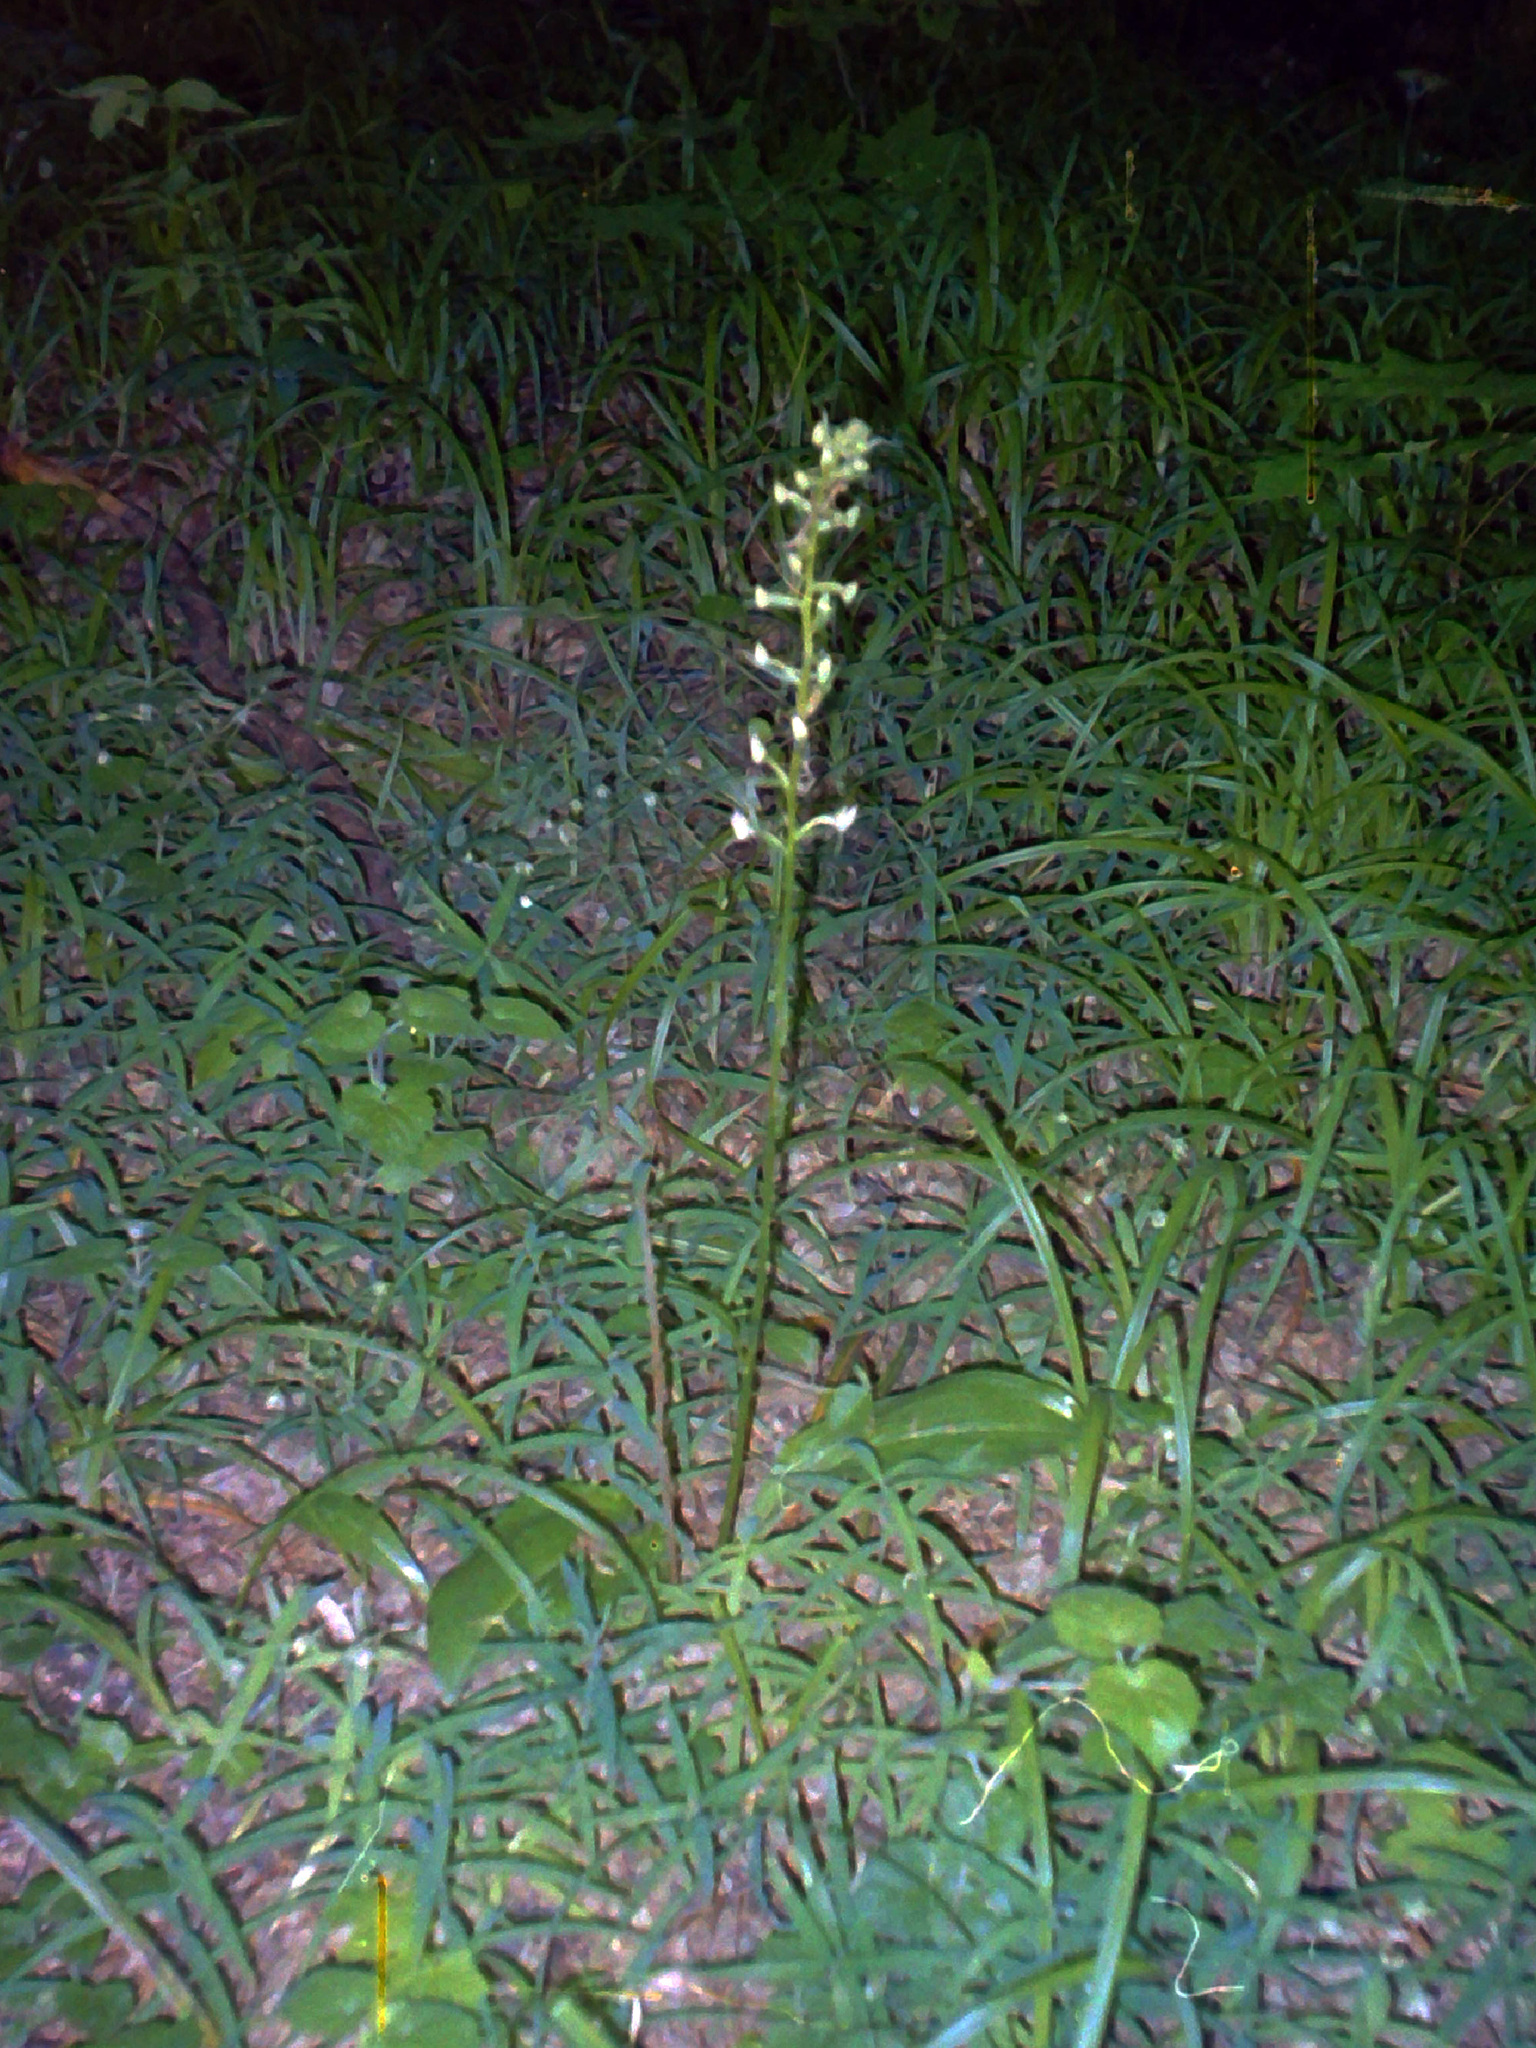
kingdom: Plantae
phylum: Tracheophyta
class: Liliopsida
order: Asparagales
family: Orchidaceae
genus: Platanthera
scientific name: Platanthera chlorantha
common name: Greater butterfly-orchid
